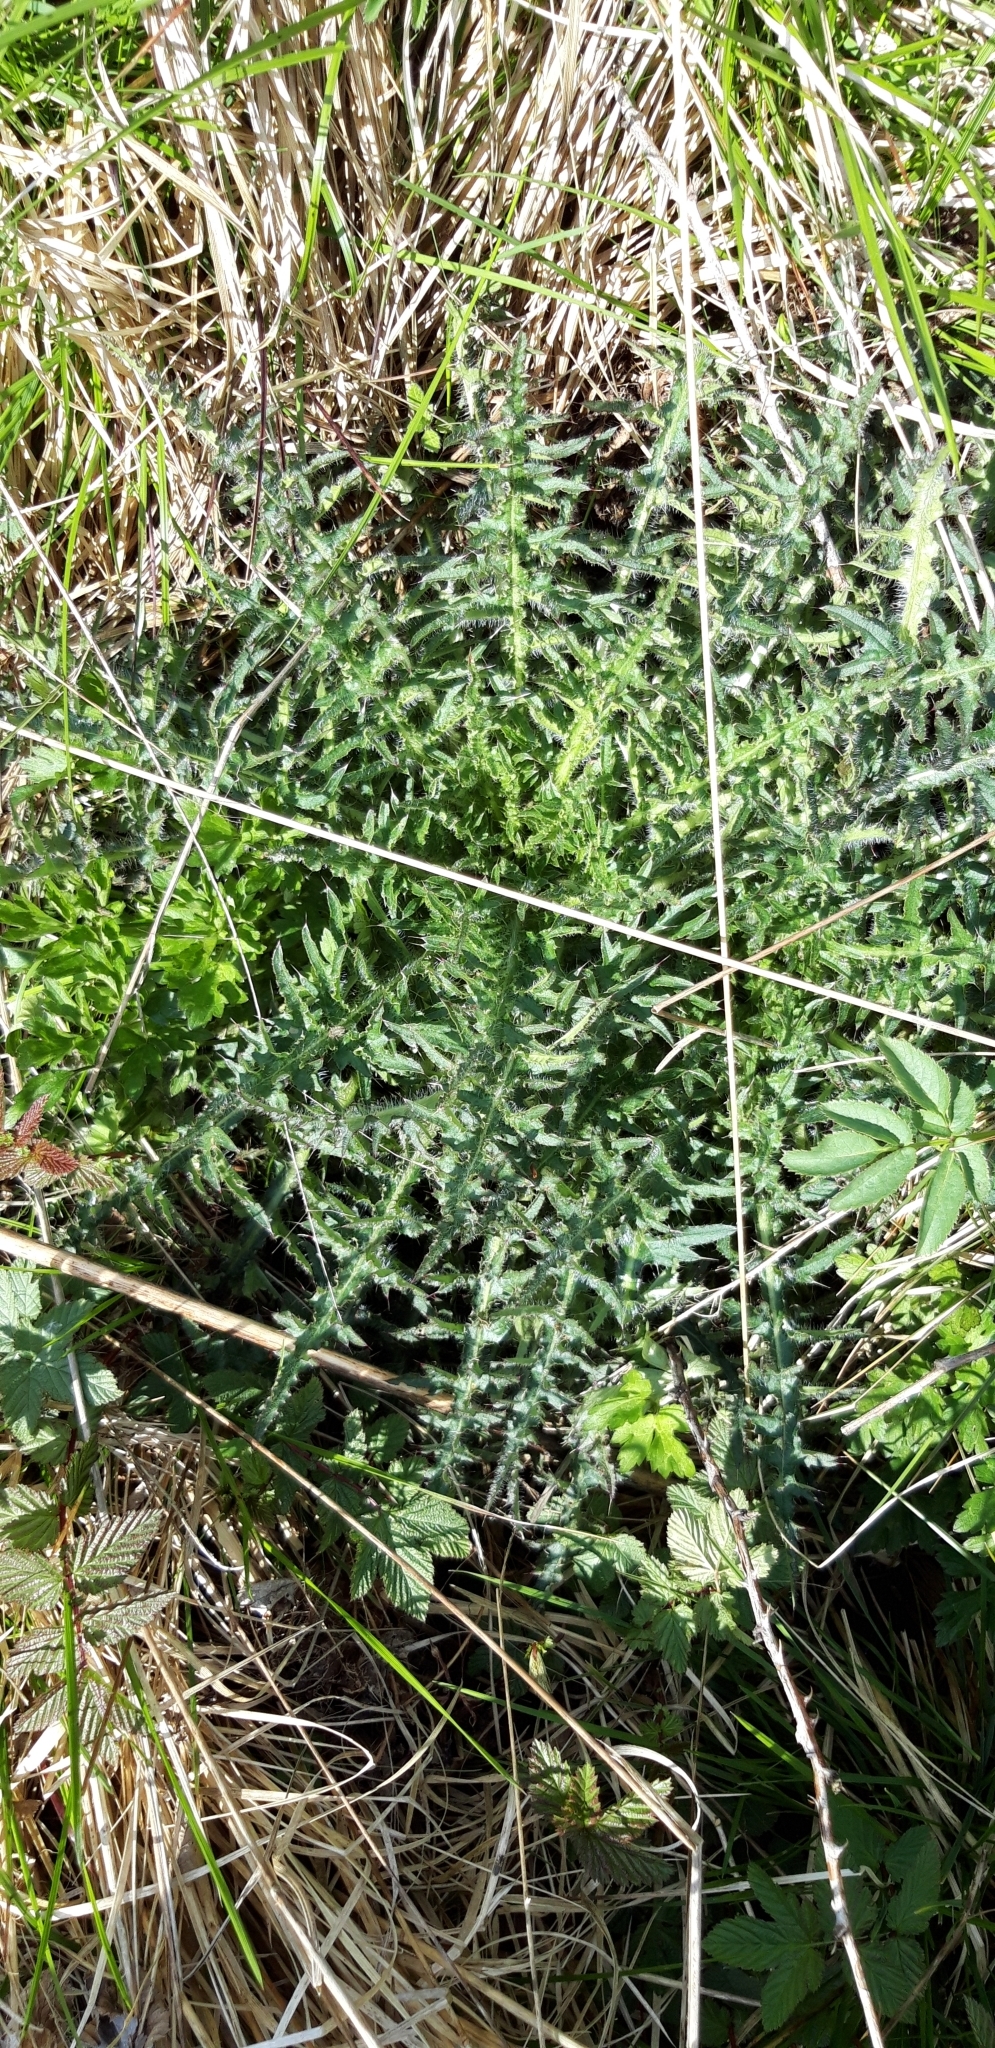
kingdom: Plantae
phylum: Tracheophyta
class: Magnoliopsida
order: Asterales
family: Asteraceae
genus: Cirsium
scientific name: Cirsium palustre
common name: Marsh thistle
